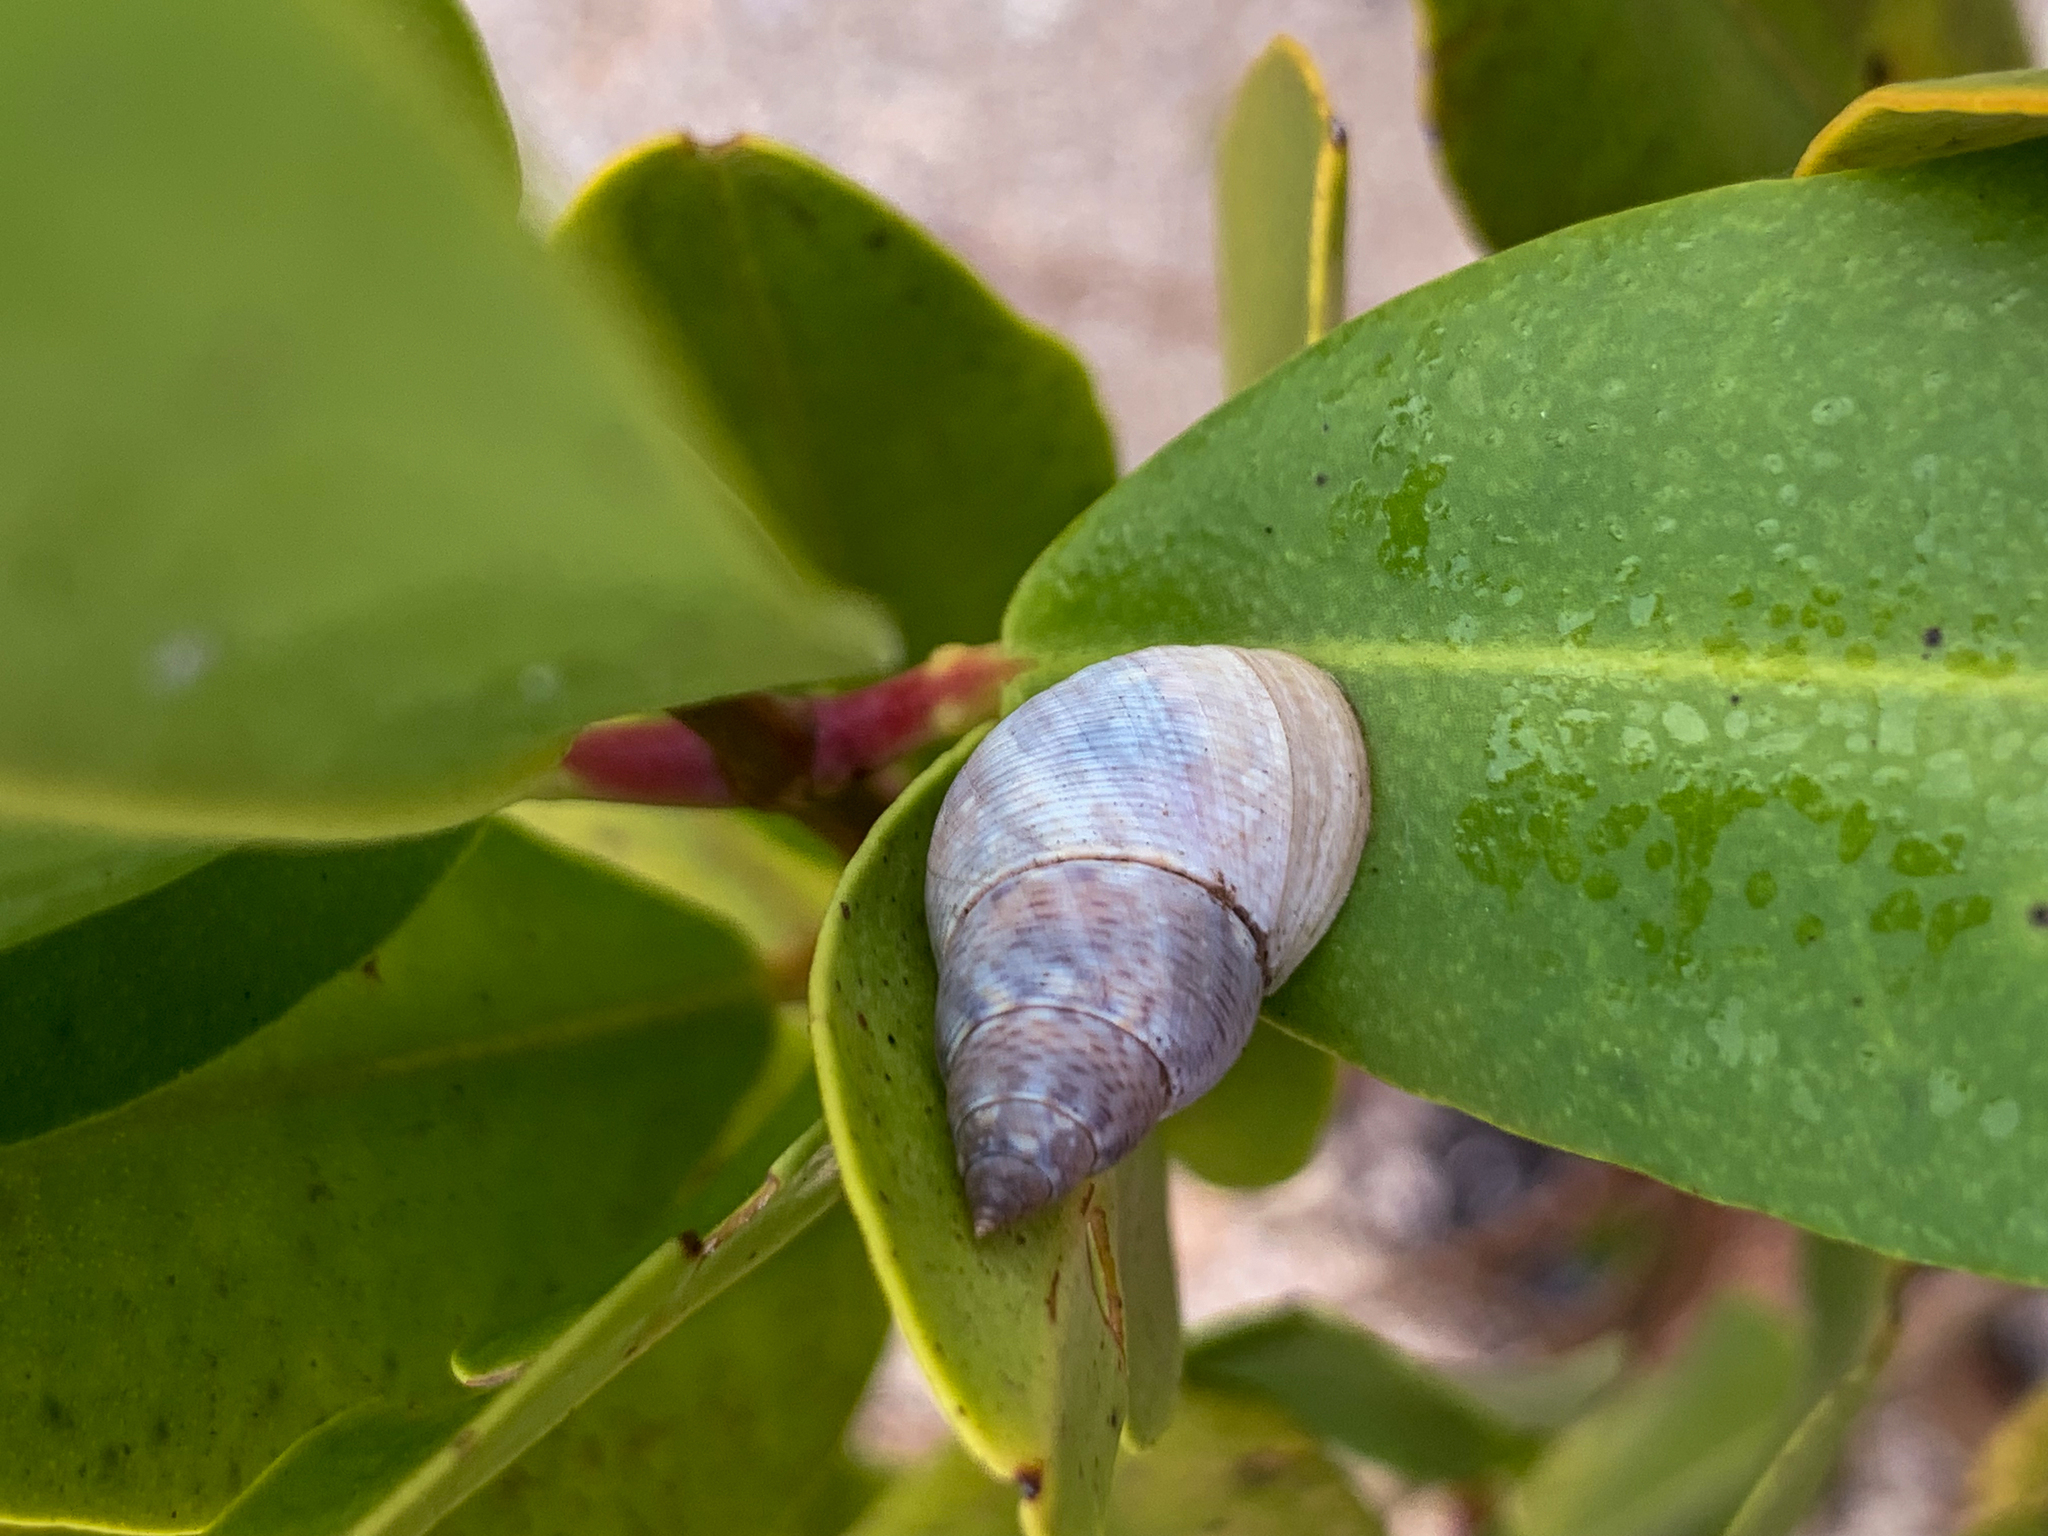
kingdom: Animalia
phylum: Mollusca
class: Gastropoda
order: Littorinimorpha
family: Littorinidae
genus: Littoraria
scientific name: Littoraria angulifera
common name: Mangrove periwinkle
